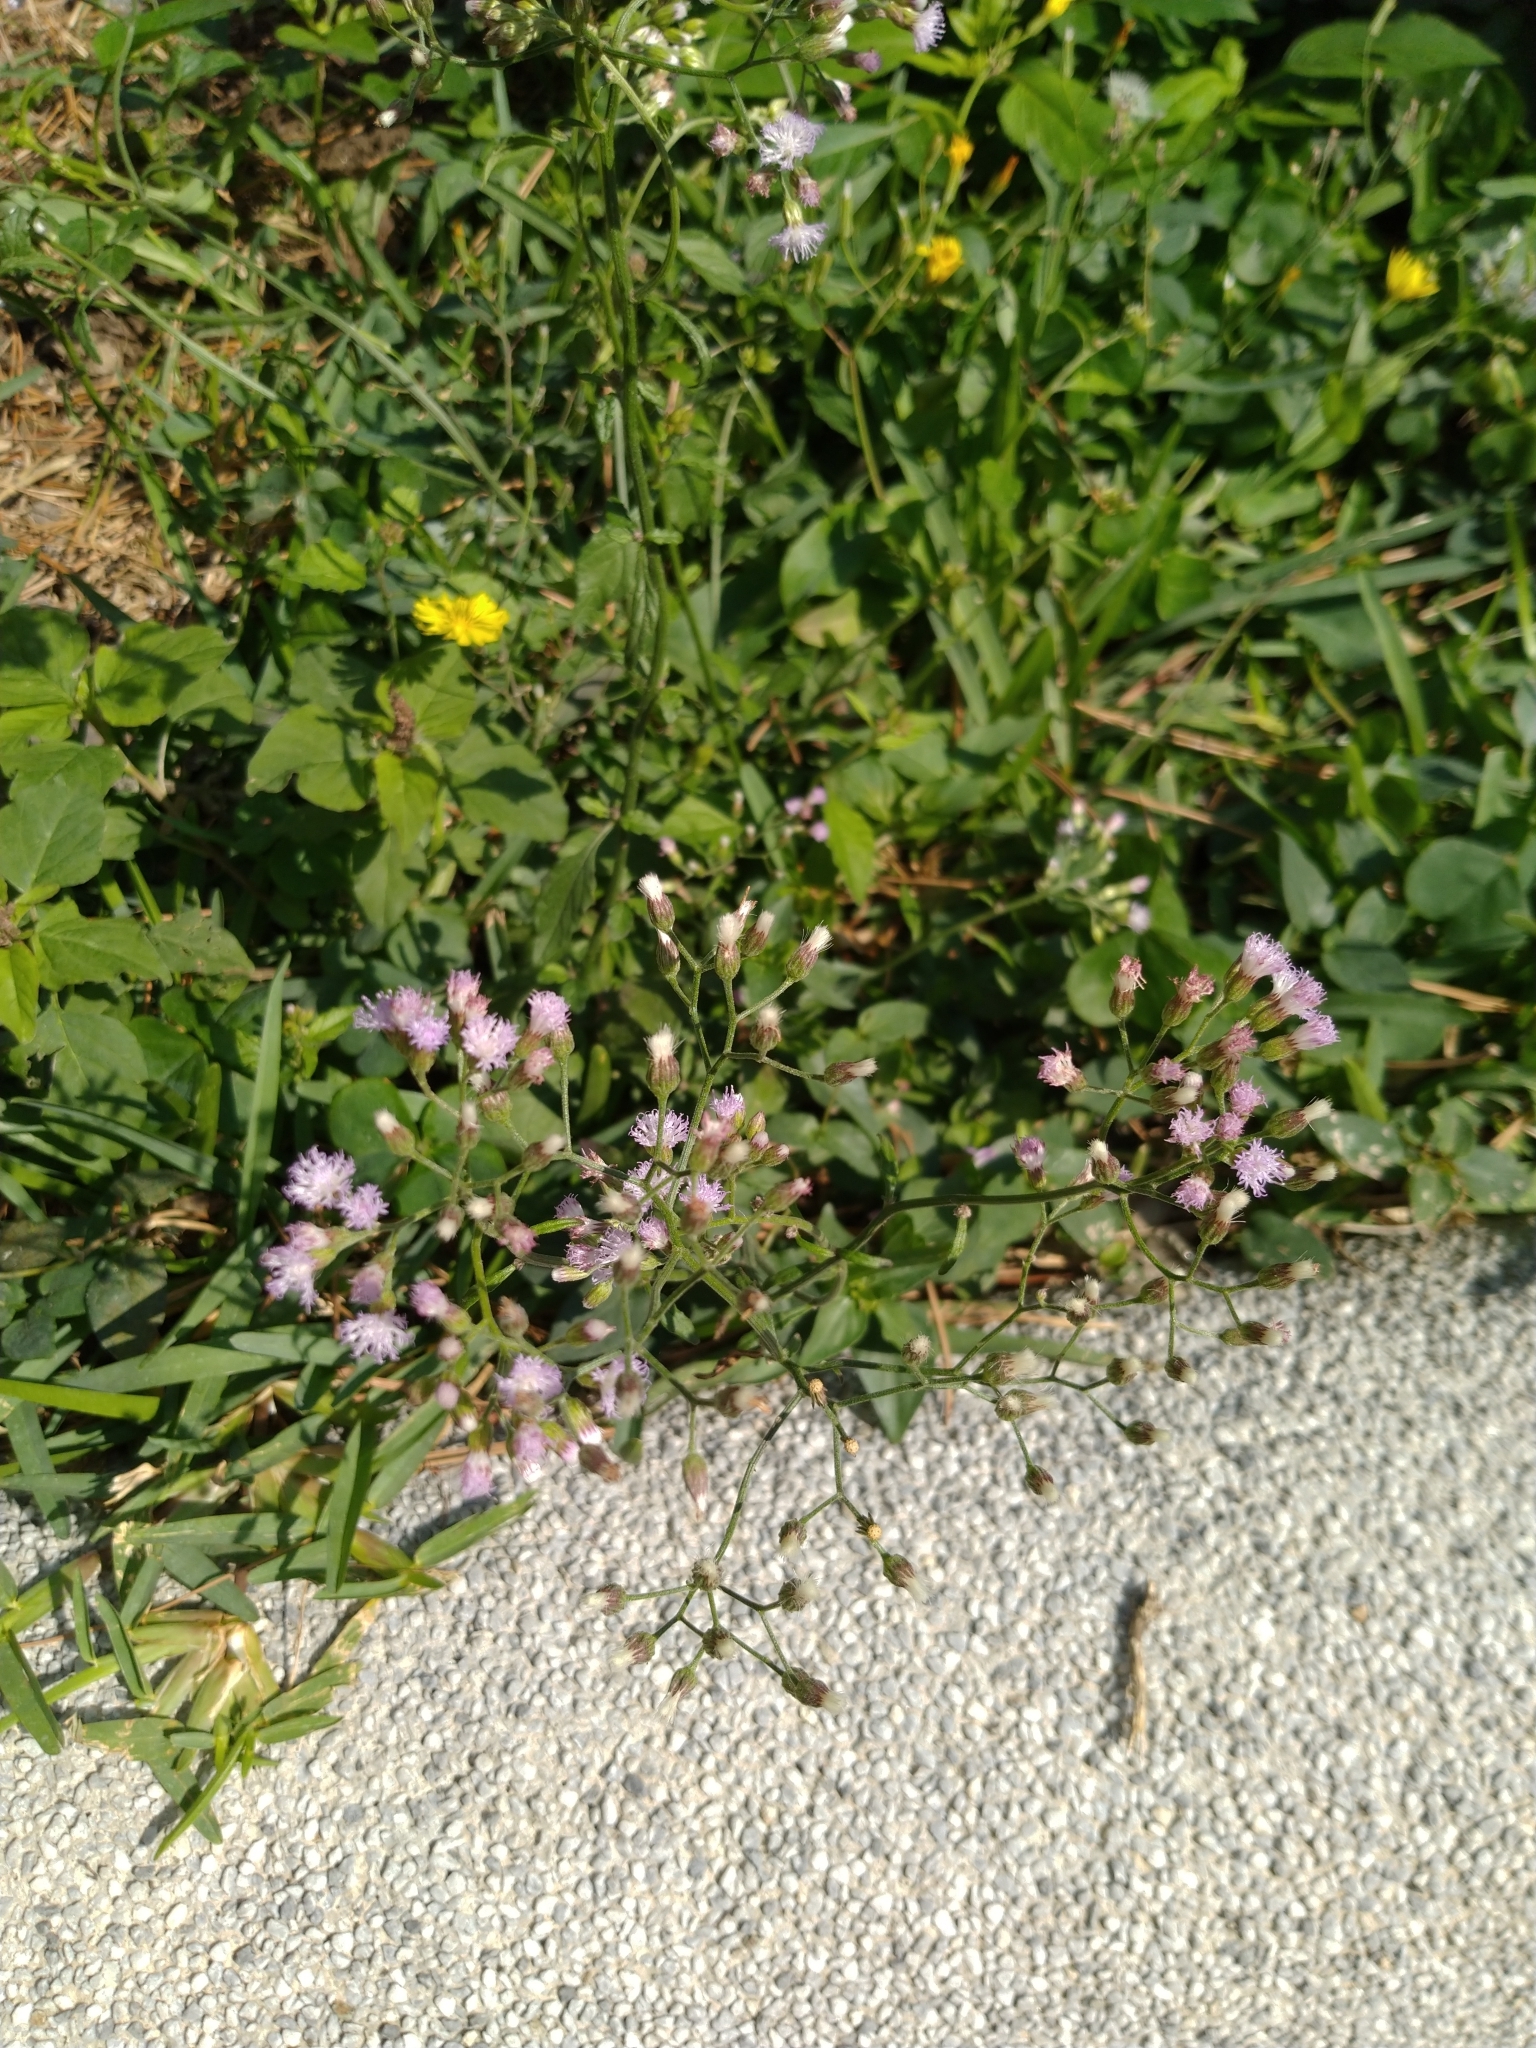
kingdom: Plantae
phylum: Tracheophyta
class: Magnoliopsida
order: Asterales
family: Asteraceae
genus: Cyanthillium
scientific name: Cyanthillium cinereum
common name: Little ironweed
